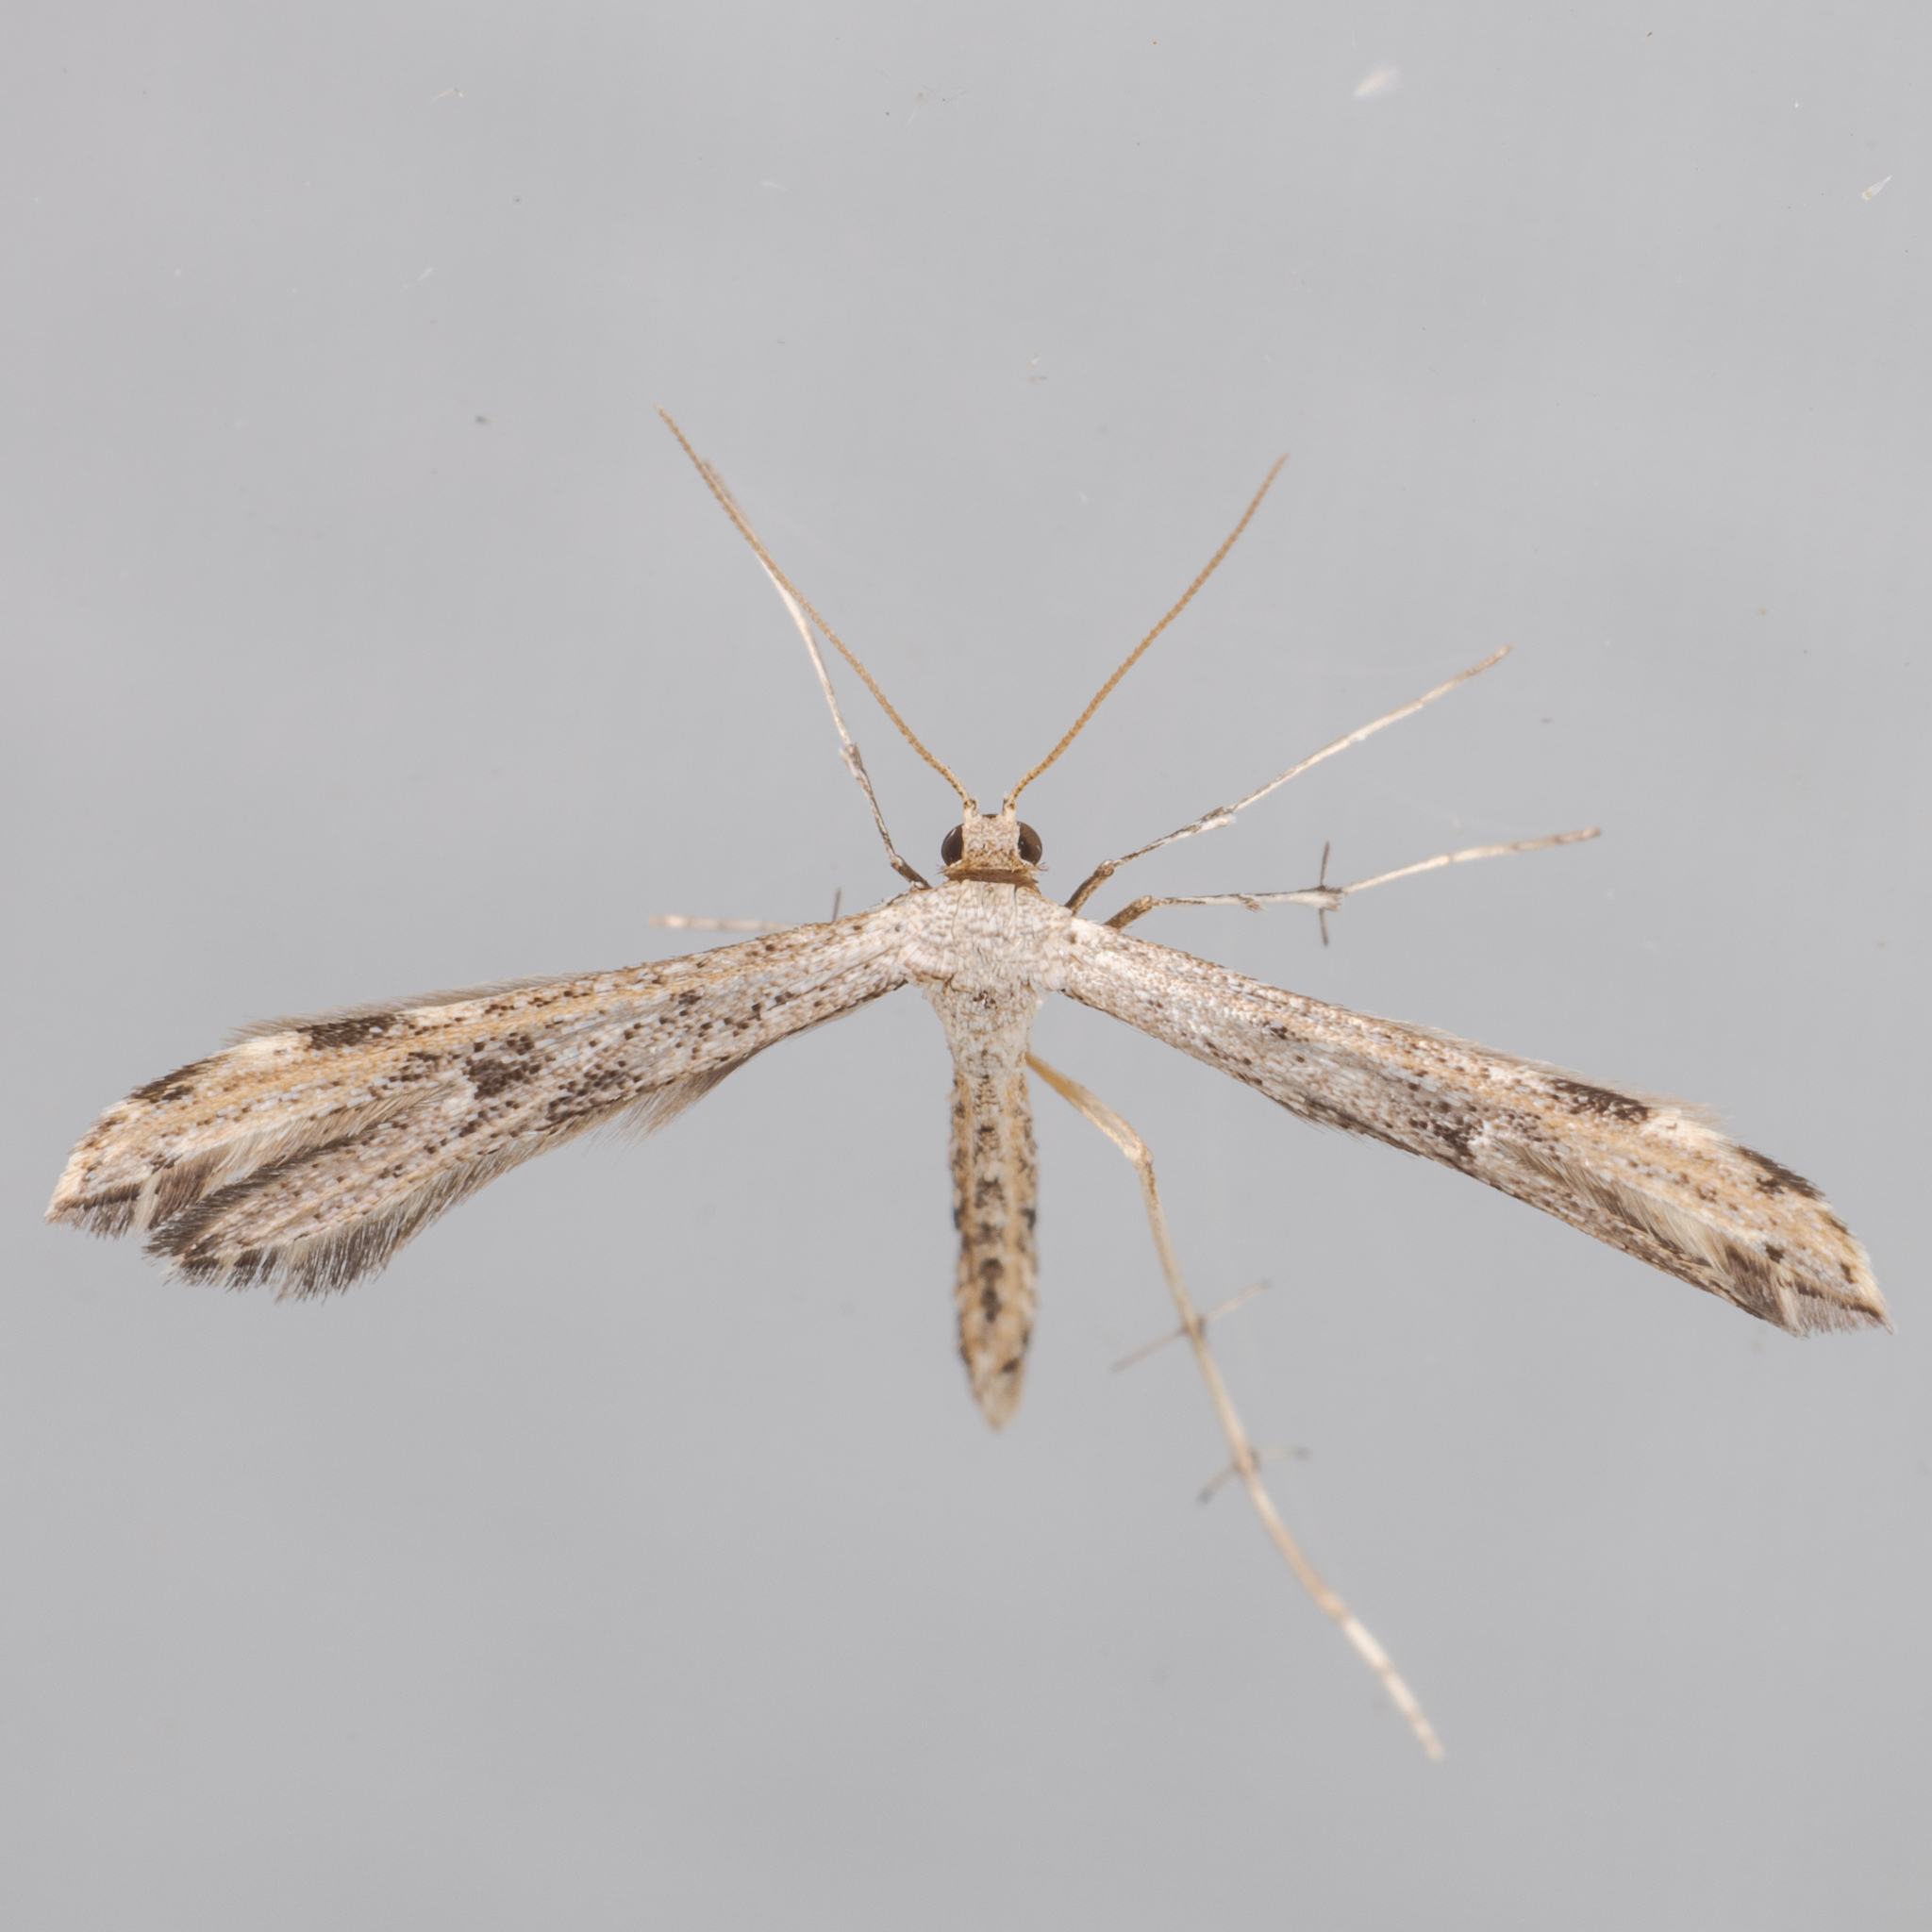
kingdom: Animalia
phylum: Arthropoda
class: Insecta
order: Lepidoptera
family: Pterophoridae
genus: Adaina
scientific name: Adaina ambrosiae
